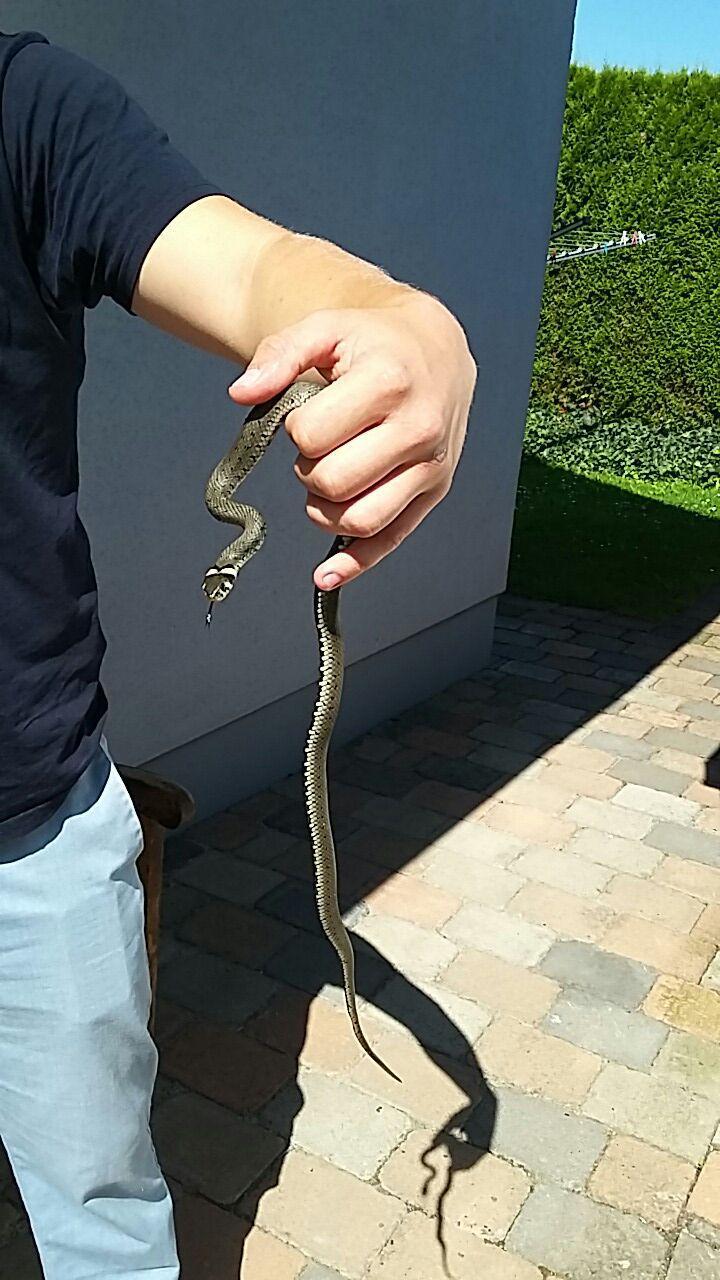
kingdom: Animalia
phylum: Chordata
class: Squamata
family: Colubridae
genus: Natrix
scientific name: Natrix natrix
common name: Grass snake
